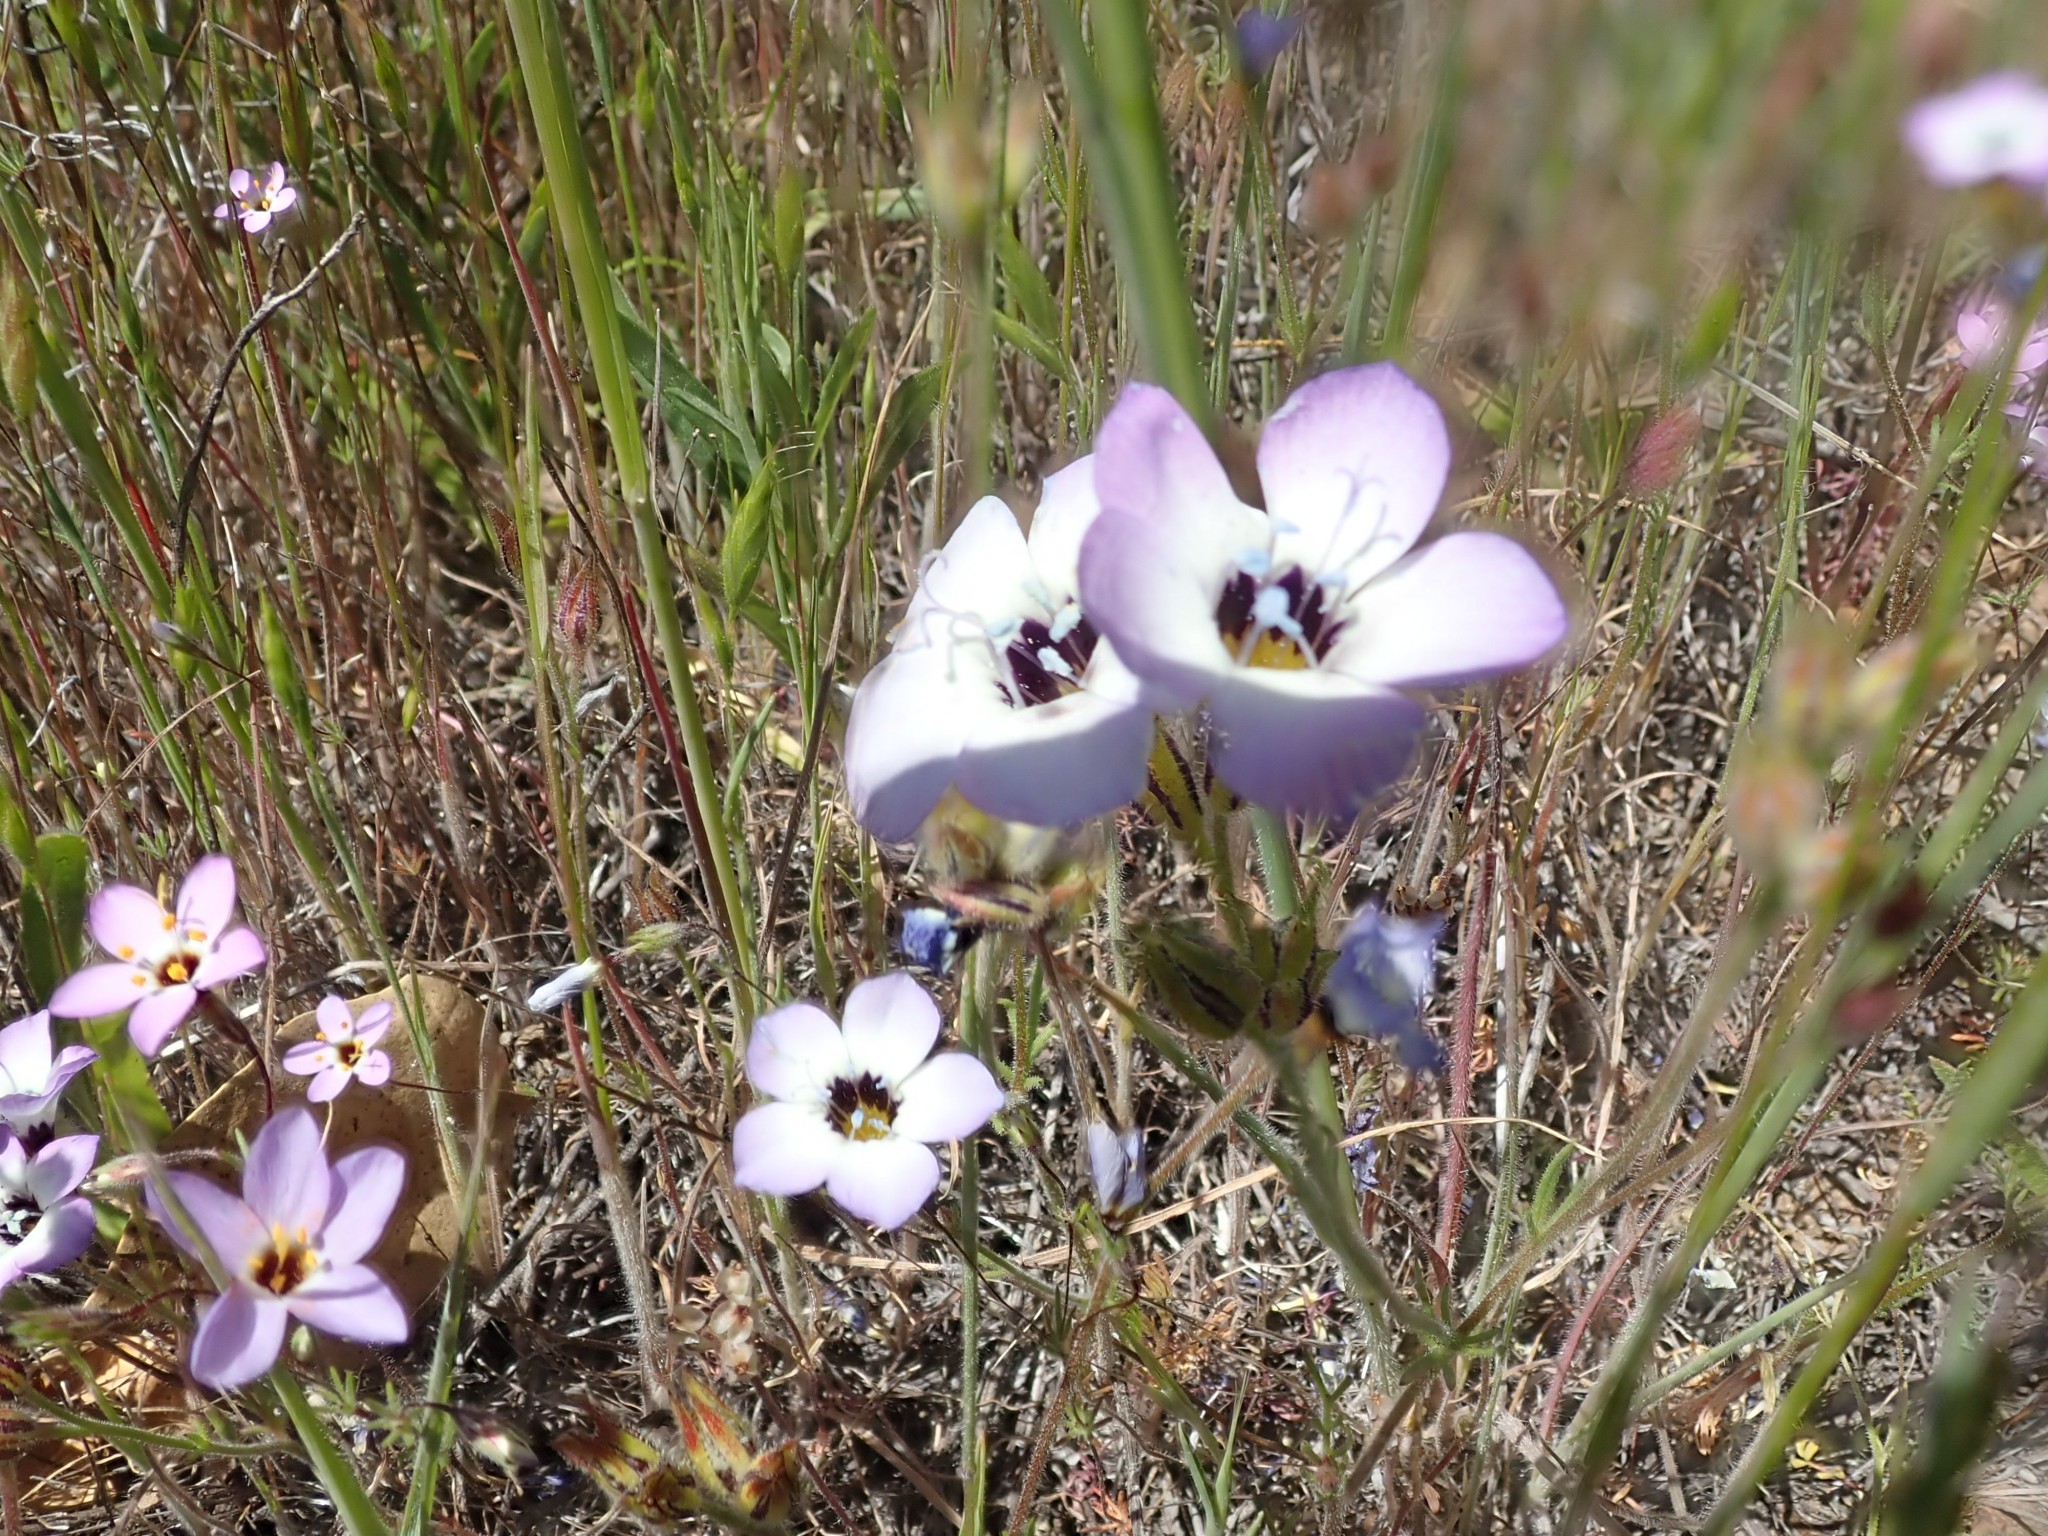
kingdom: Plantae
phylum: Tracheophyta
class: Magnoliopsida
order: Ericales
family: Polemoniaceae
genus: Gilia
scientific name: Gilia tricolor
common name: Bird's-eyes
